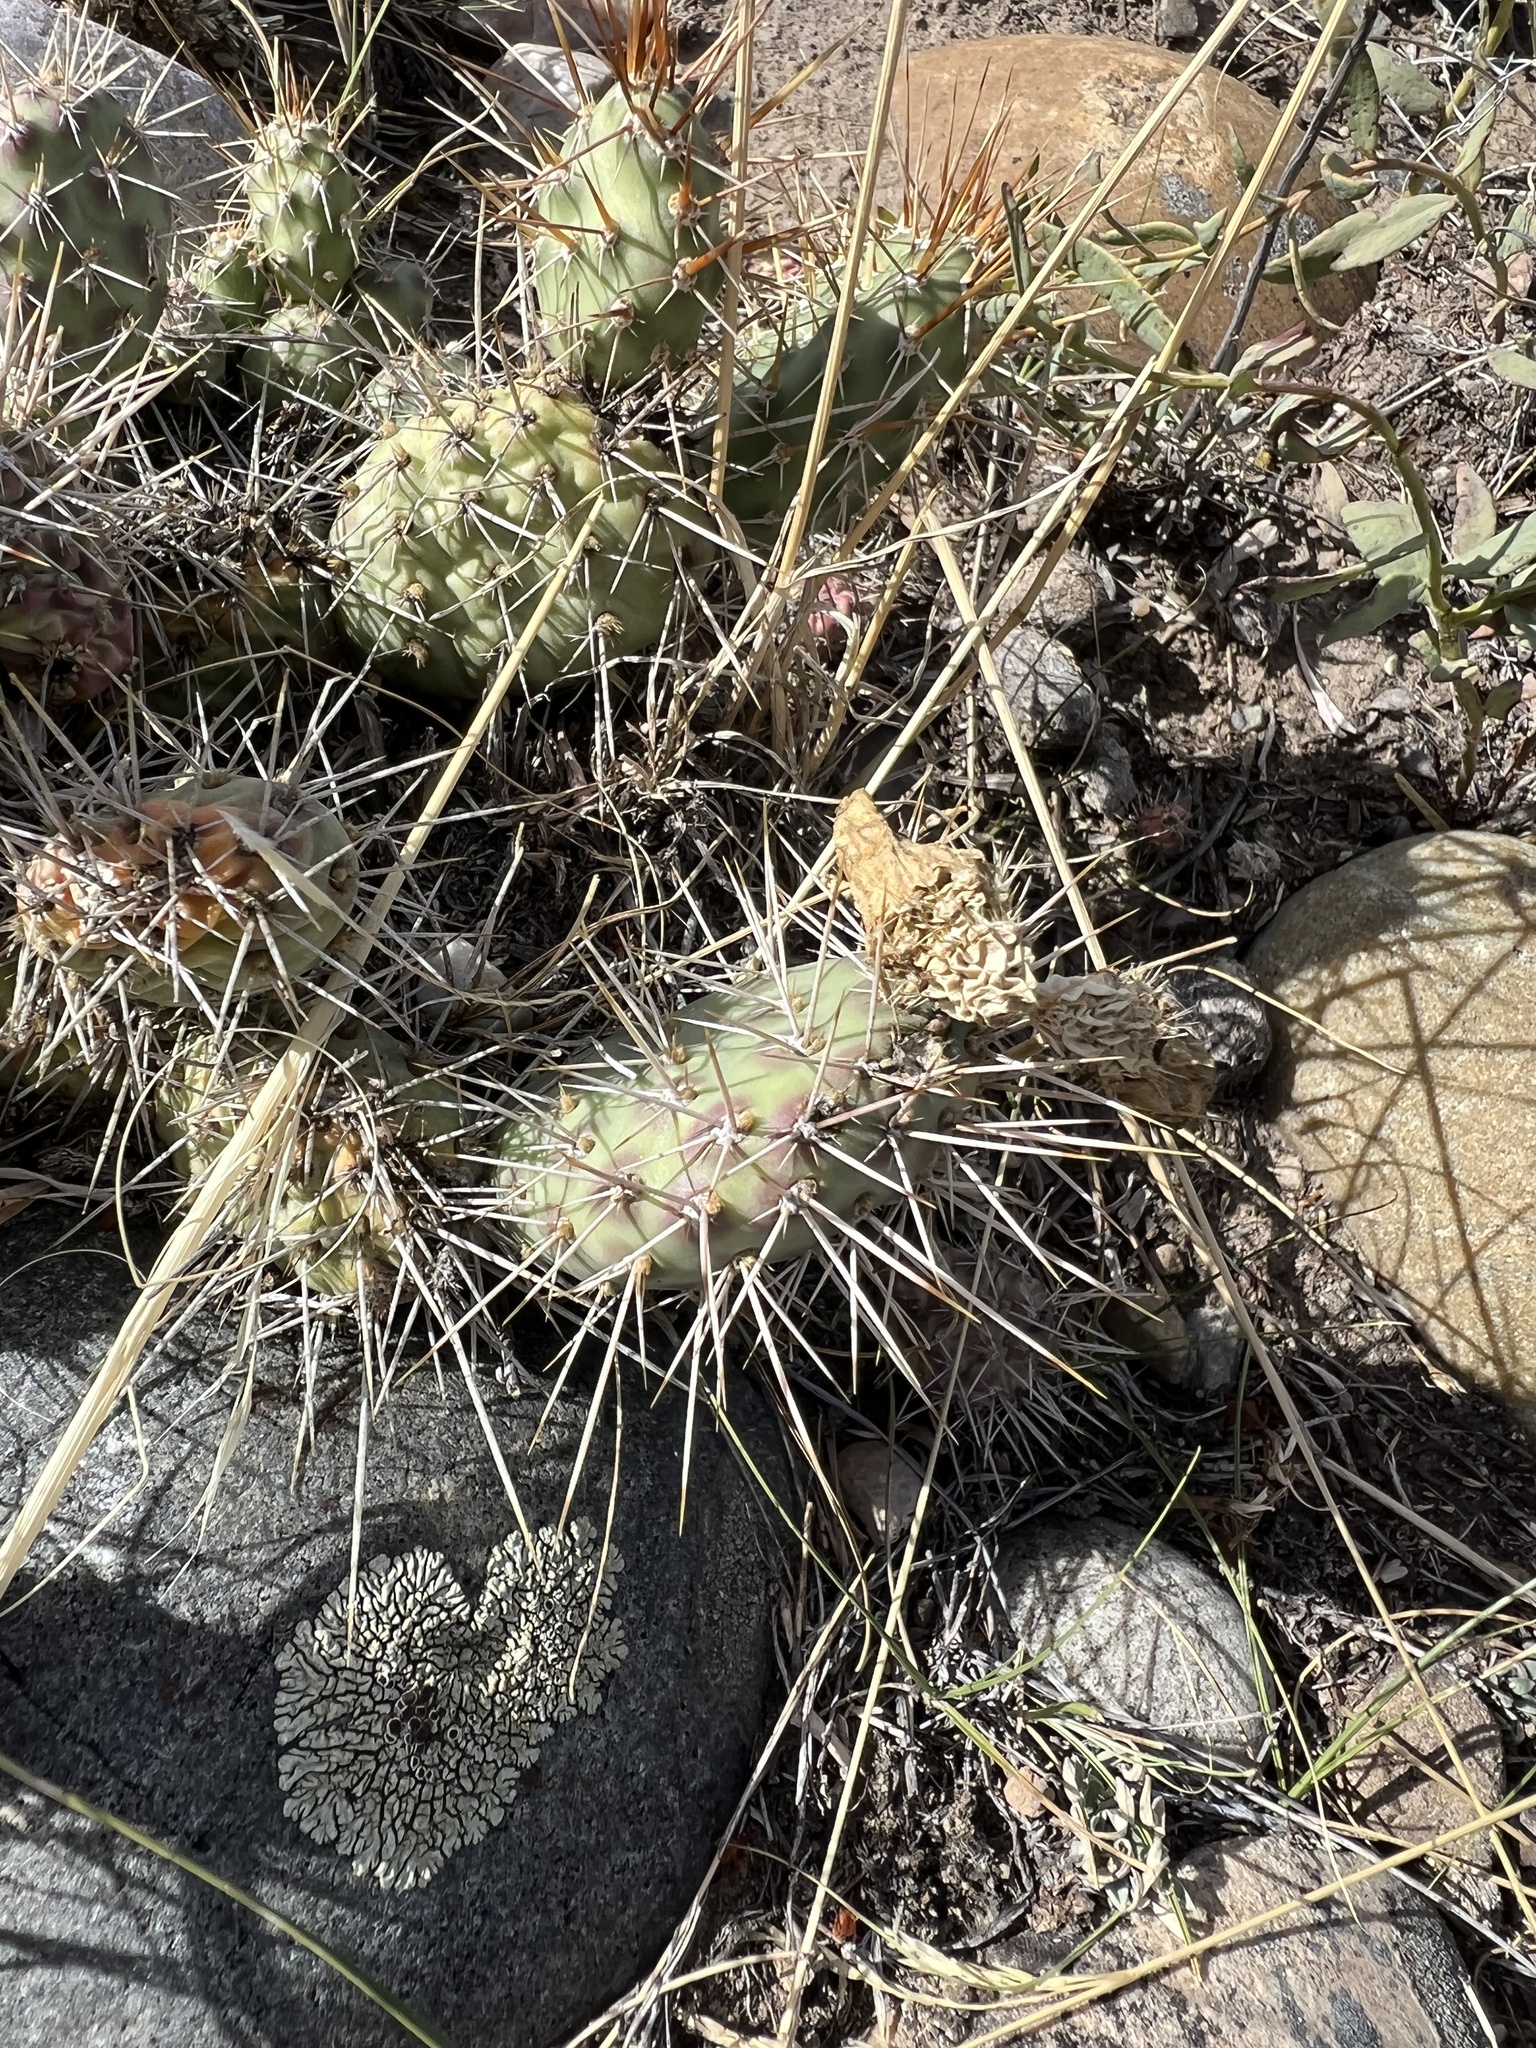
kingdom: Plantae
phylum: Tracheophyta
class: Magnoliopsida
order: Caryophyllales
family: Cactaceae
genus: Opuntia
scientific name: Opuntia fragilis
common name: Brittle cactus
